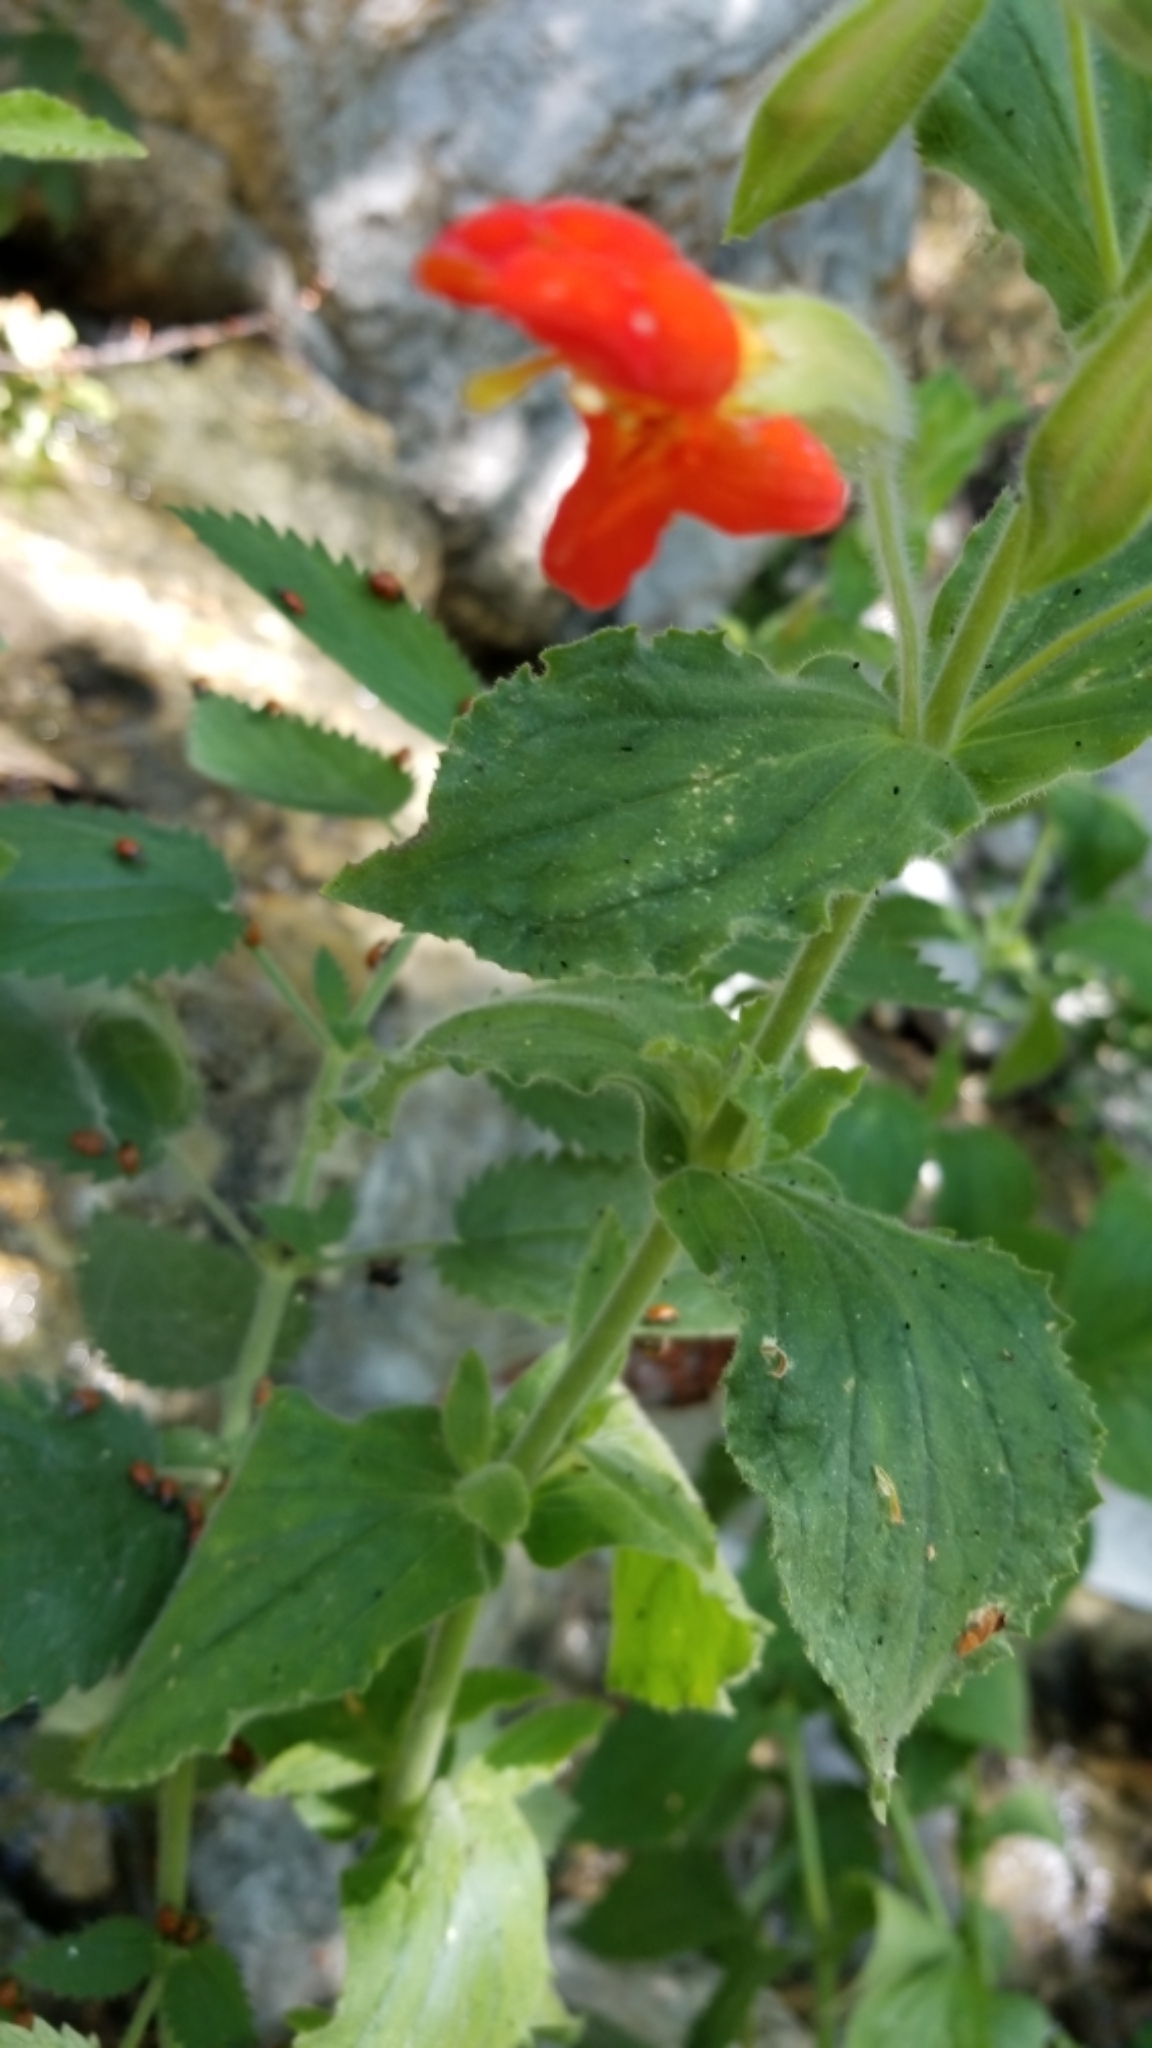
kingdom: Plantae
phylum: Tracheophyta
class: Magnoliopsida
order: Lamiales
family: Phrymaceae
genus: Erythranthe
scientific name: Erythranthe cardinalis
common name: Scarlet monkey-flower
